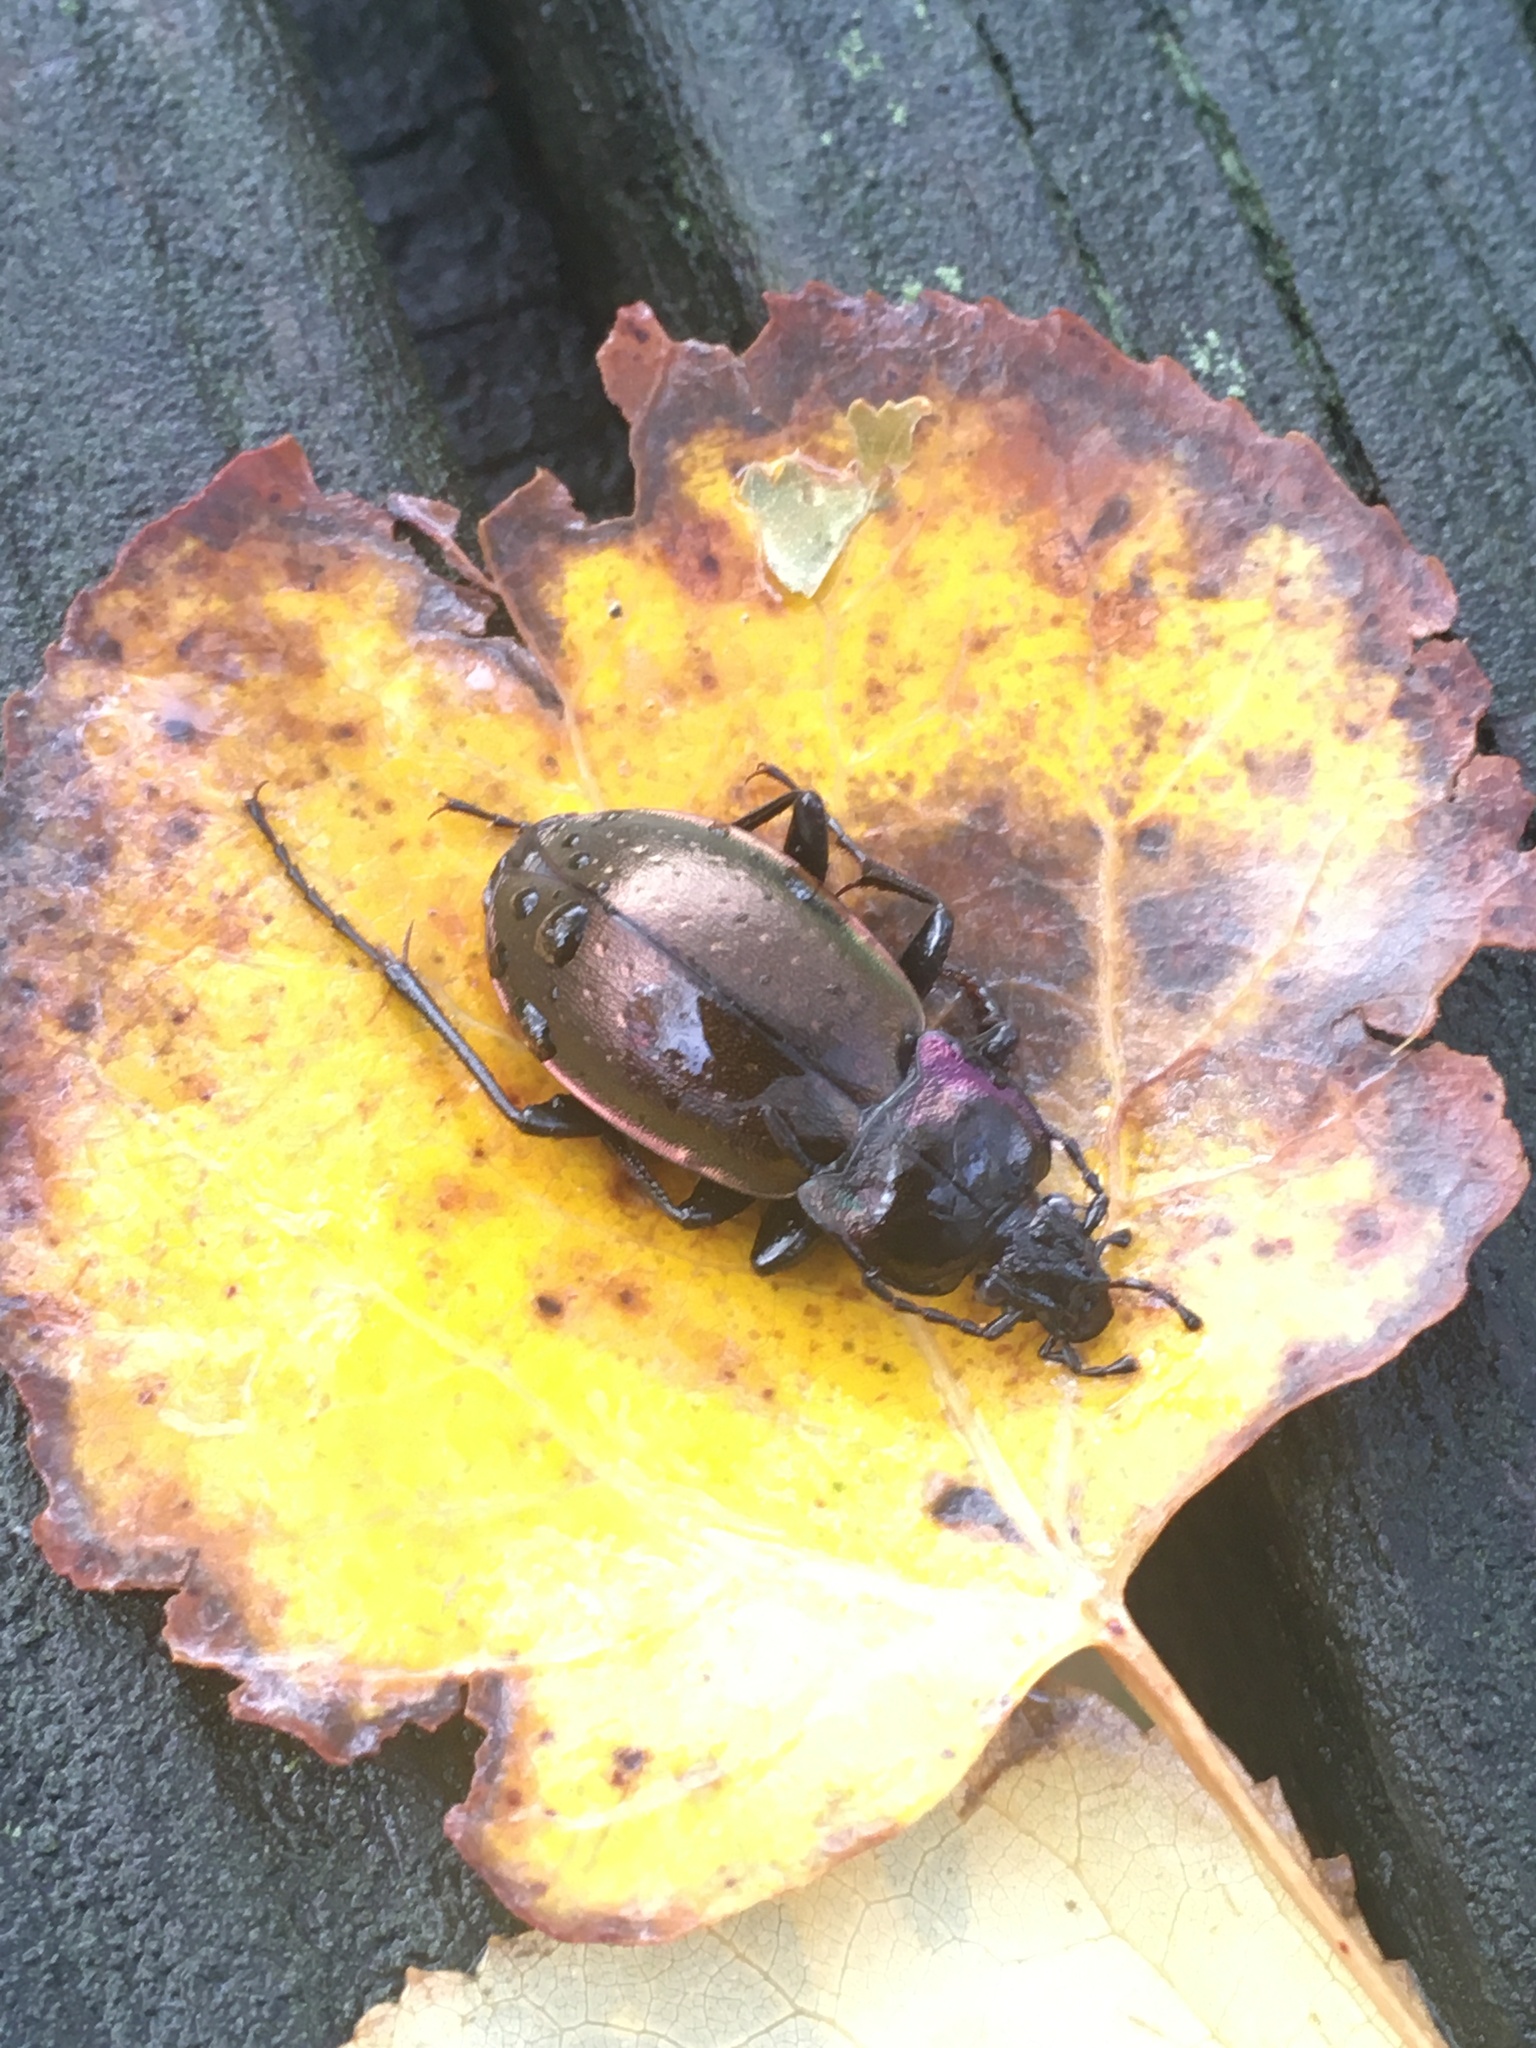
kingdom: Animalia
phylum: Arthropoda
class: Insecta
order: Coleoptera
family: Carabidae
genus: Carabus
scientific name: Carabus nemoralis
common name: European ground beetle
